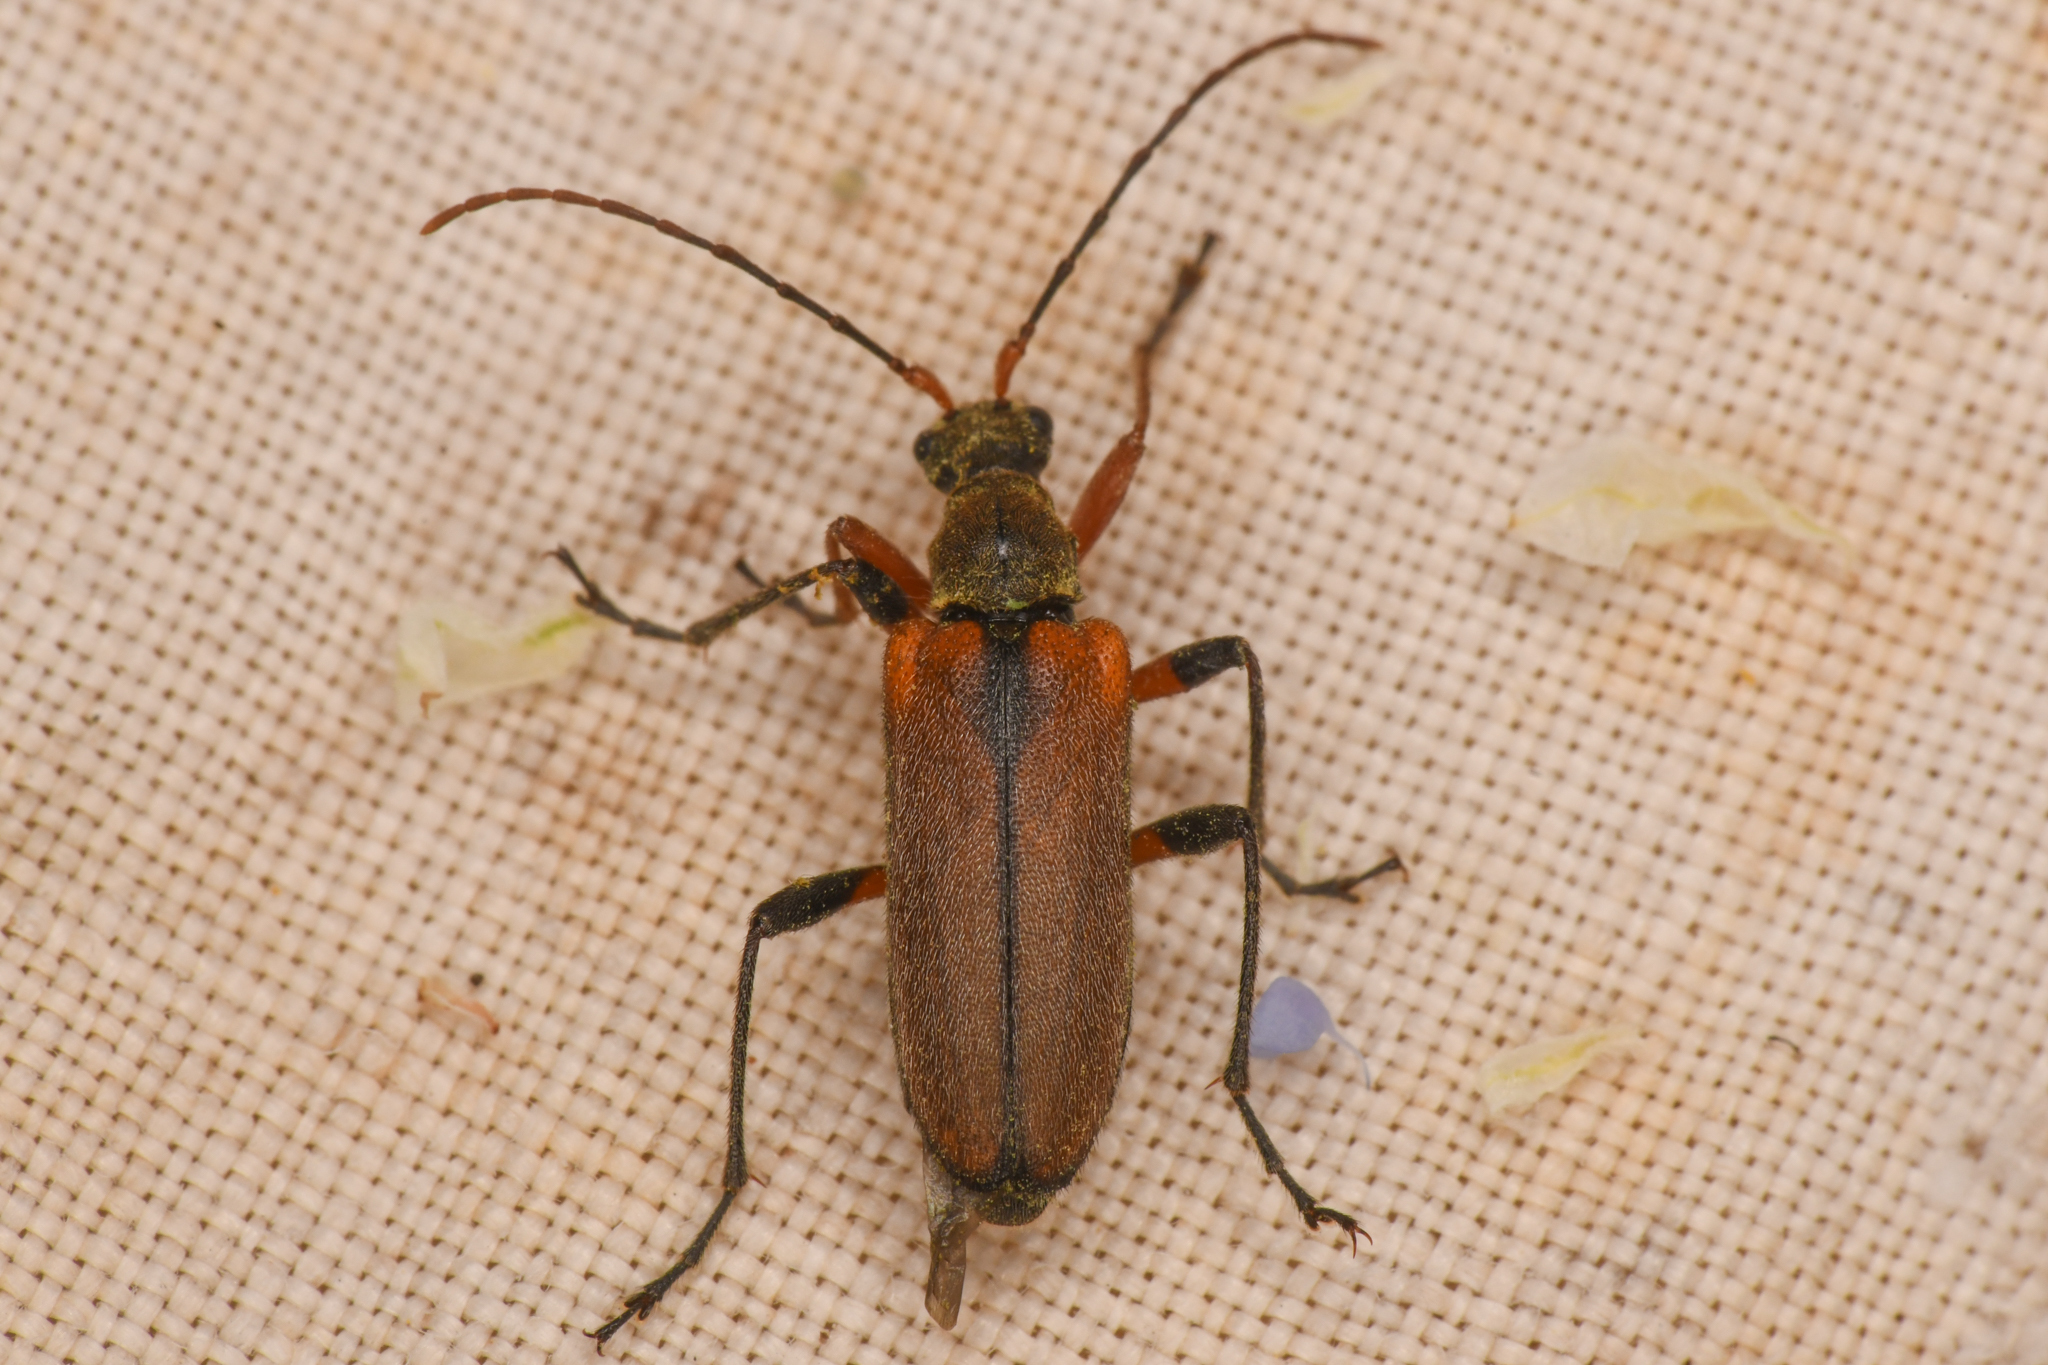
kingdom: Animalia
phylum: Arthropoda
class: Insecta
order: Coleoptera
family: Cerambycidae
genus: Cortodera
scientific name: Cortodera cubitalis
